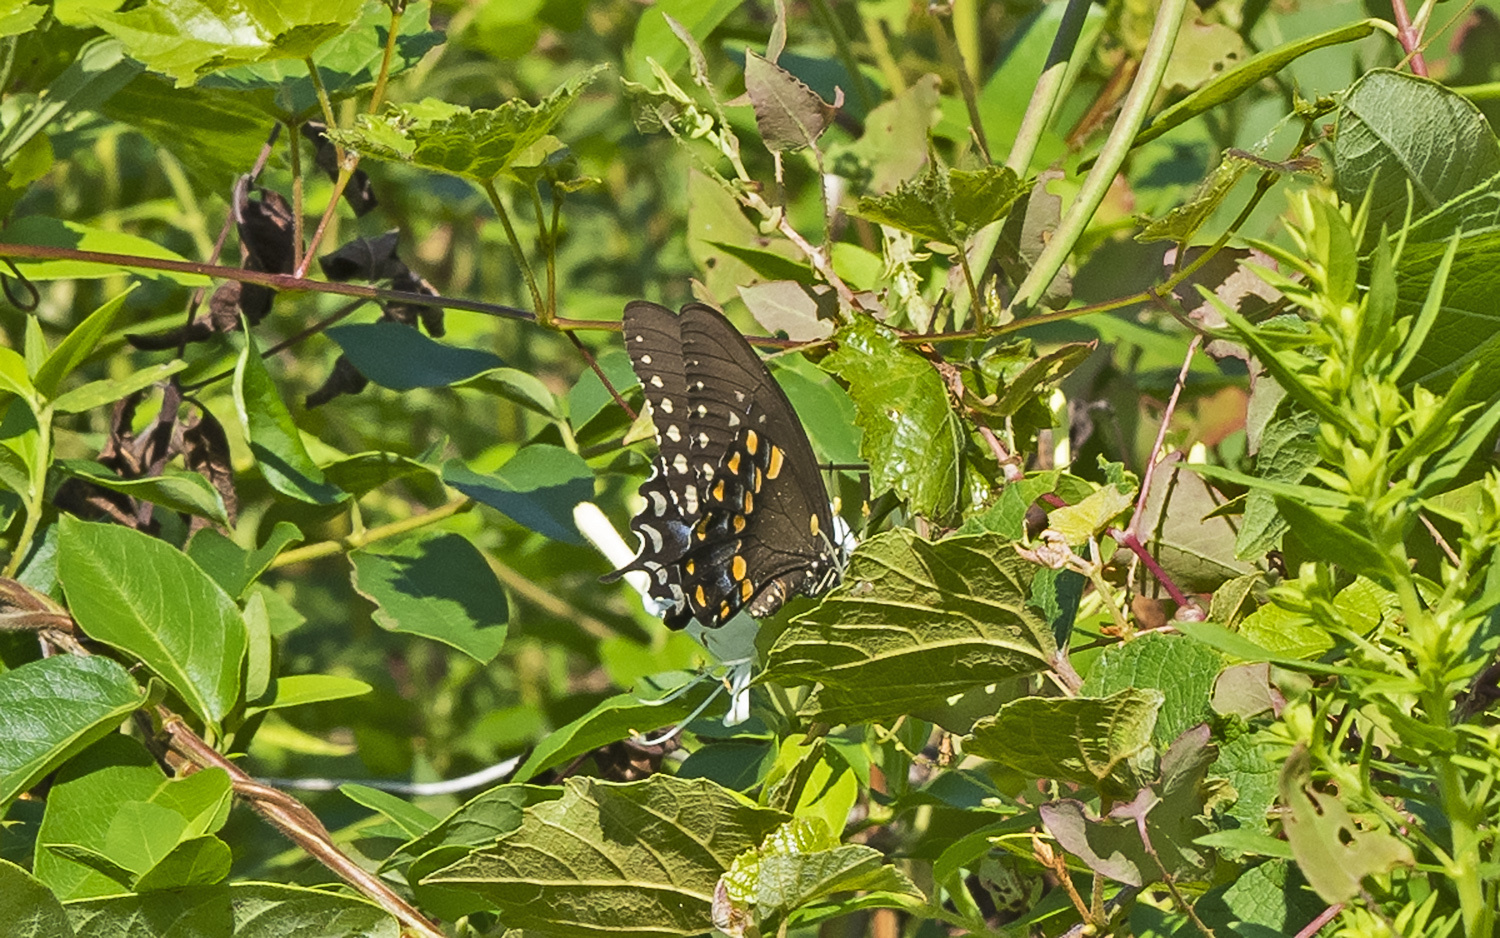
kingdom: Animalia
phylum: Arthropoda
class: Insecta
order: Lepidoptera
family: Papilionidae
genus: Papilio
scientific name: Papilio troilus
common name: Spicebush swallowtail
